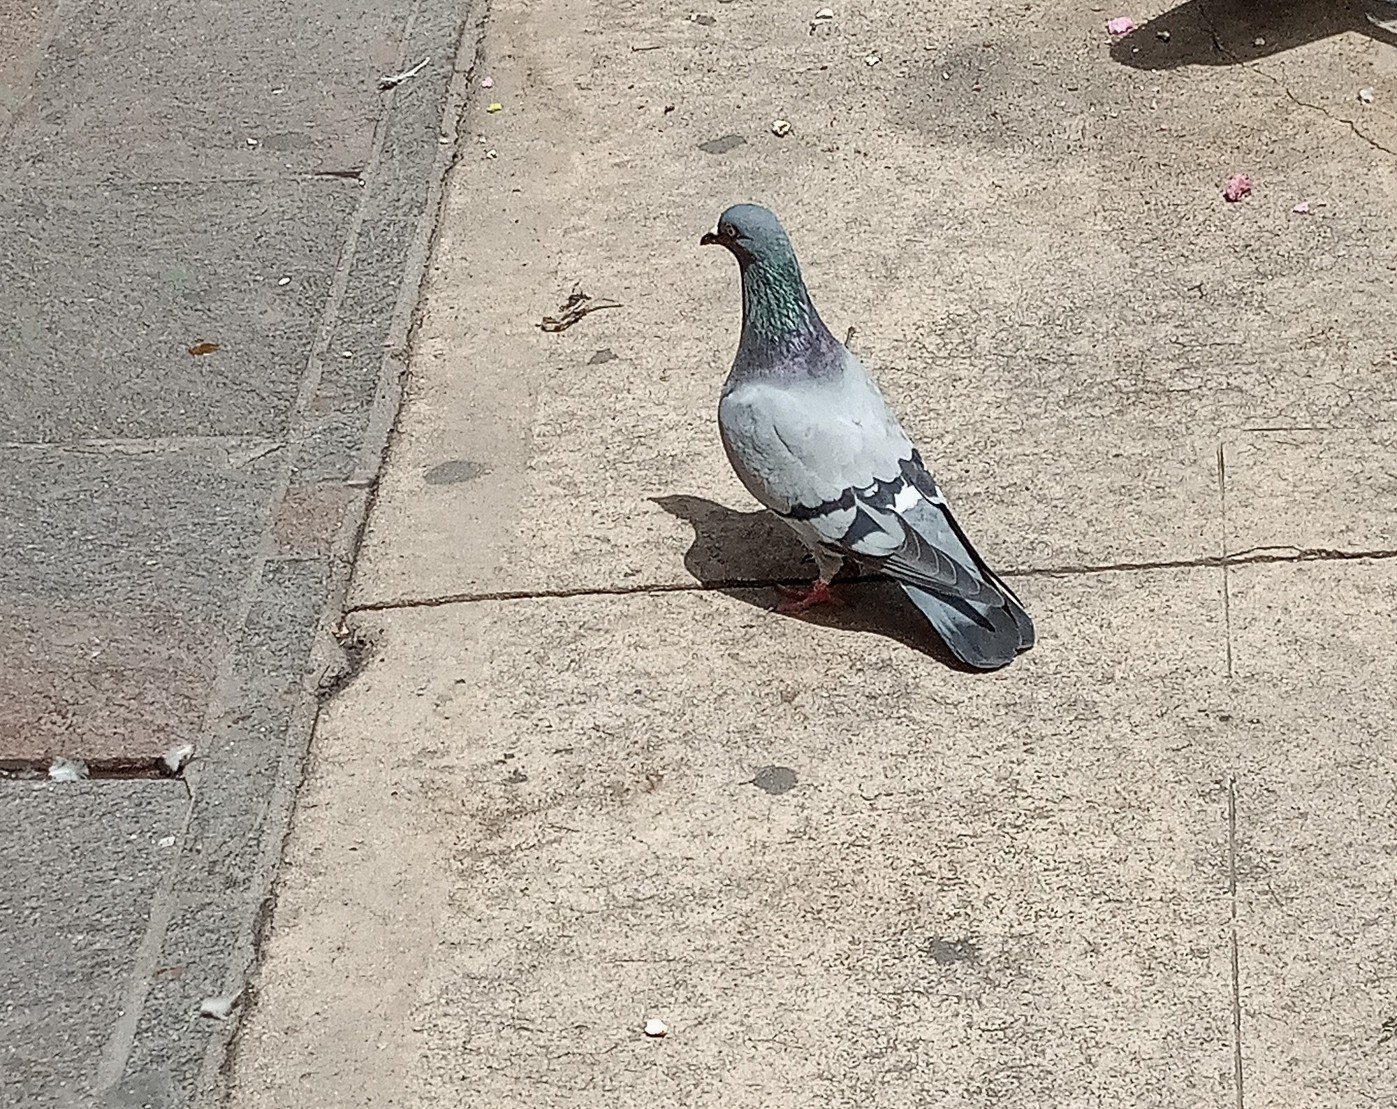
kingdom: Animalia
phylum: Chordata
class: Aves
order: Columbiformes
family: Columbidae
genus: Columba
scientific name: Columba livia
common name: Rock pigeon
